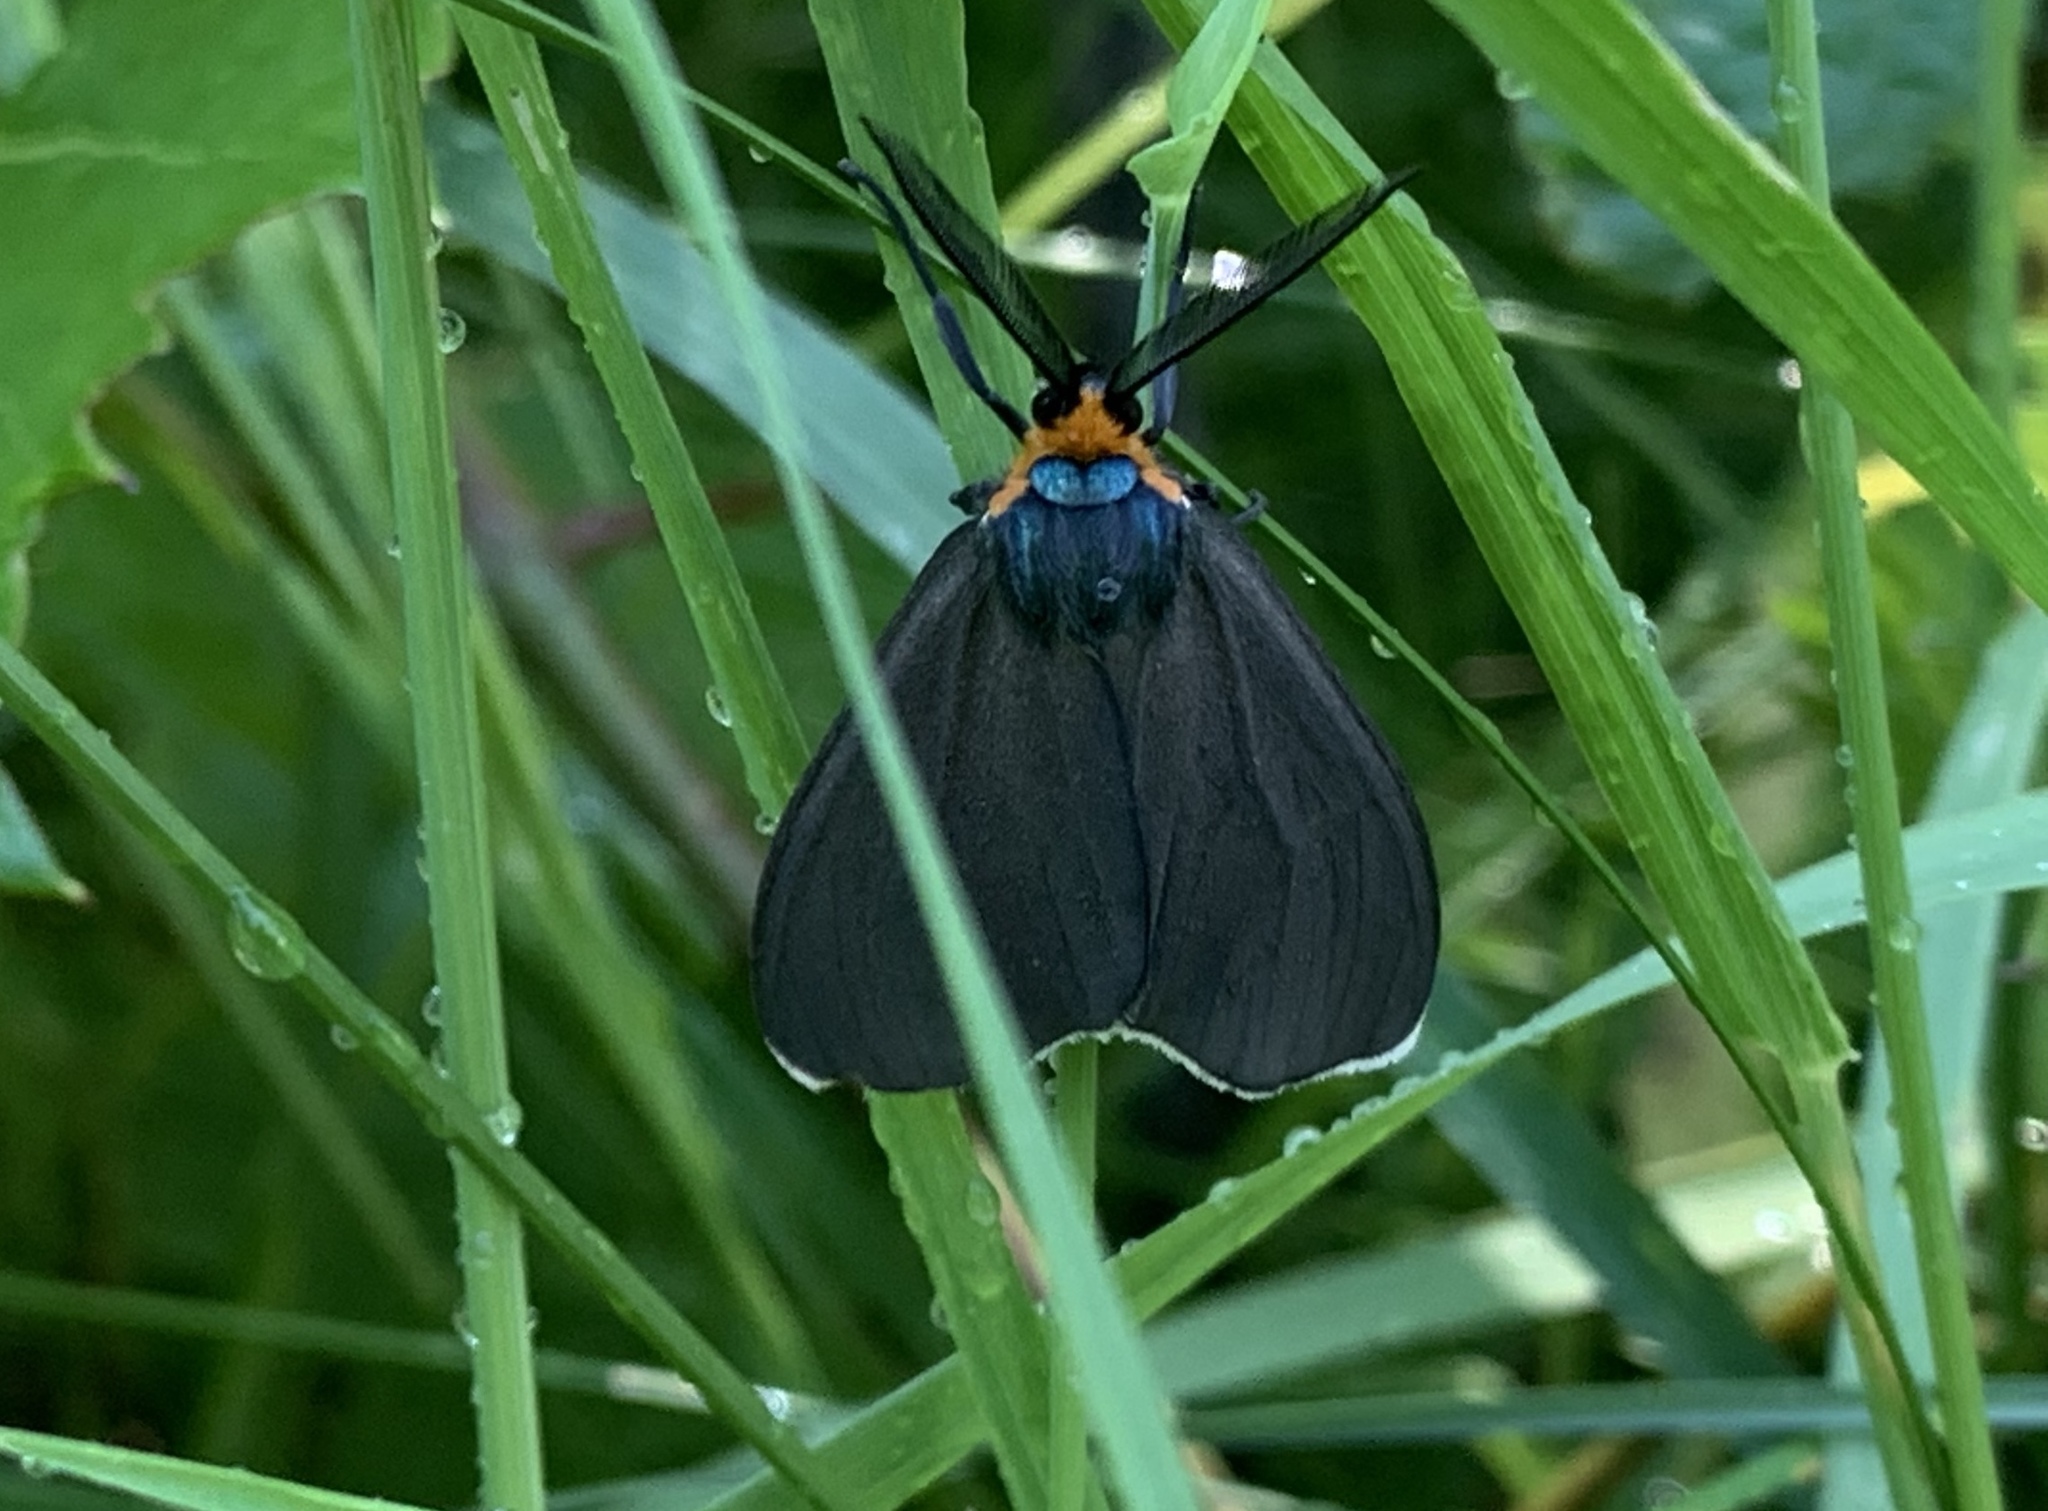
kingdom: Animalia
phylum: Arthropoda
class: Insecta
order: Lepidoptera
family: Erebidae
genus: Ctenucha
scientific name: Ctenucha virginica
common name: Virginia ctenucha moth
